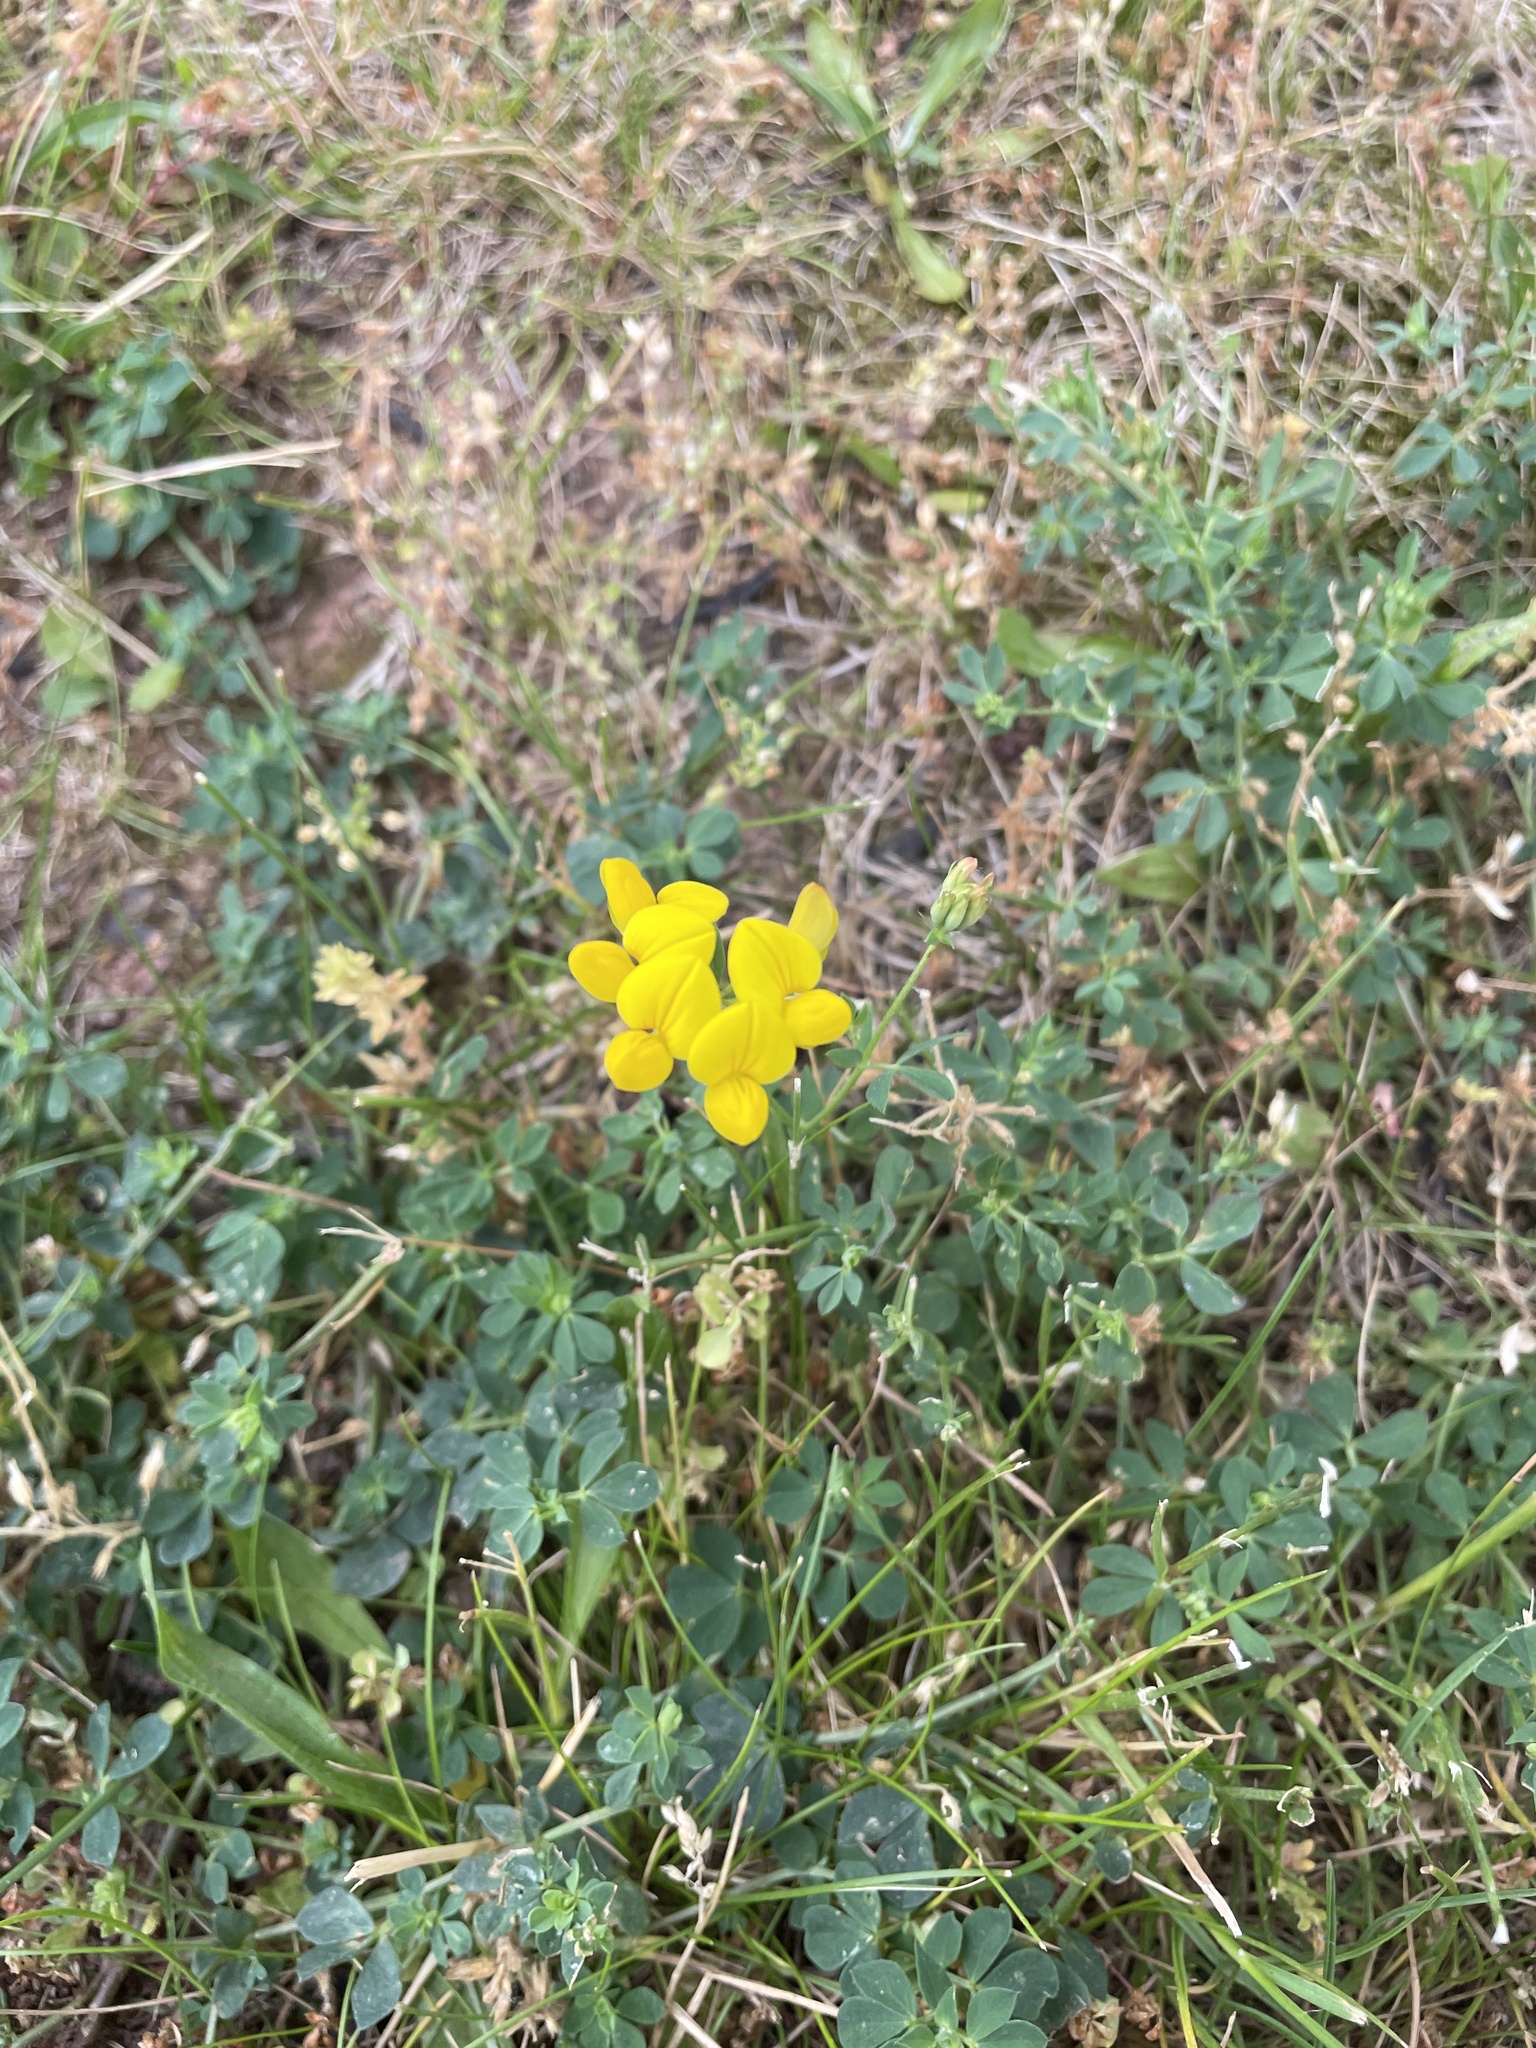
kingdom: Plantae
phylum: Tracheophyta
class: Magnoliopsida
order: Fabales
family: Fabaceae
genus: Lotus
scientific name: Lotus corniculatus
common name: Common bird's-foot-trefoil
